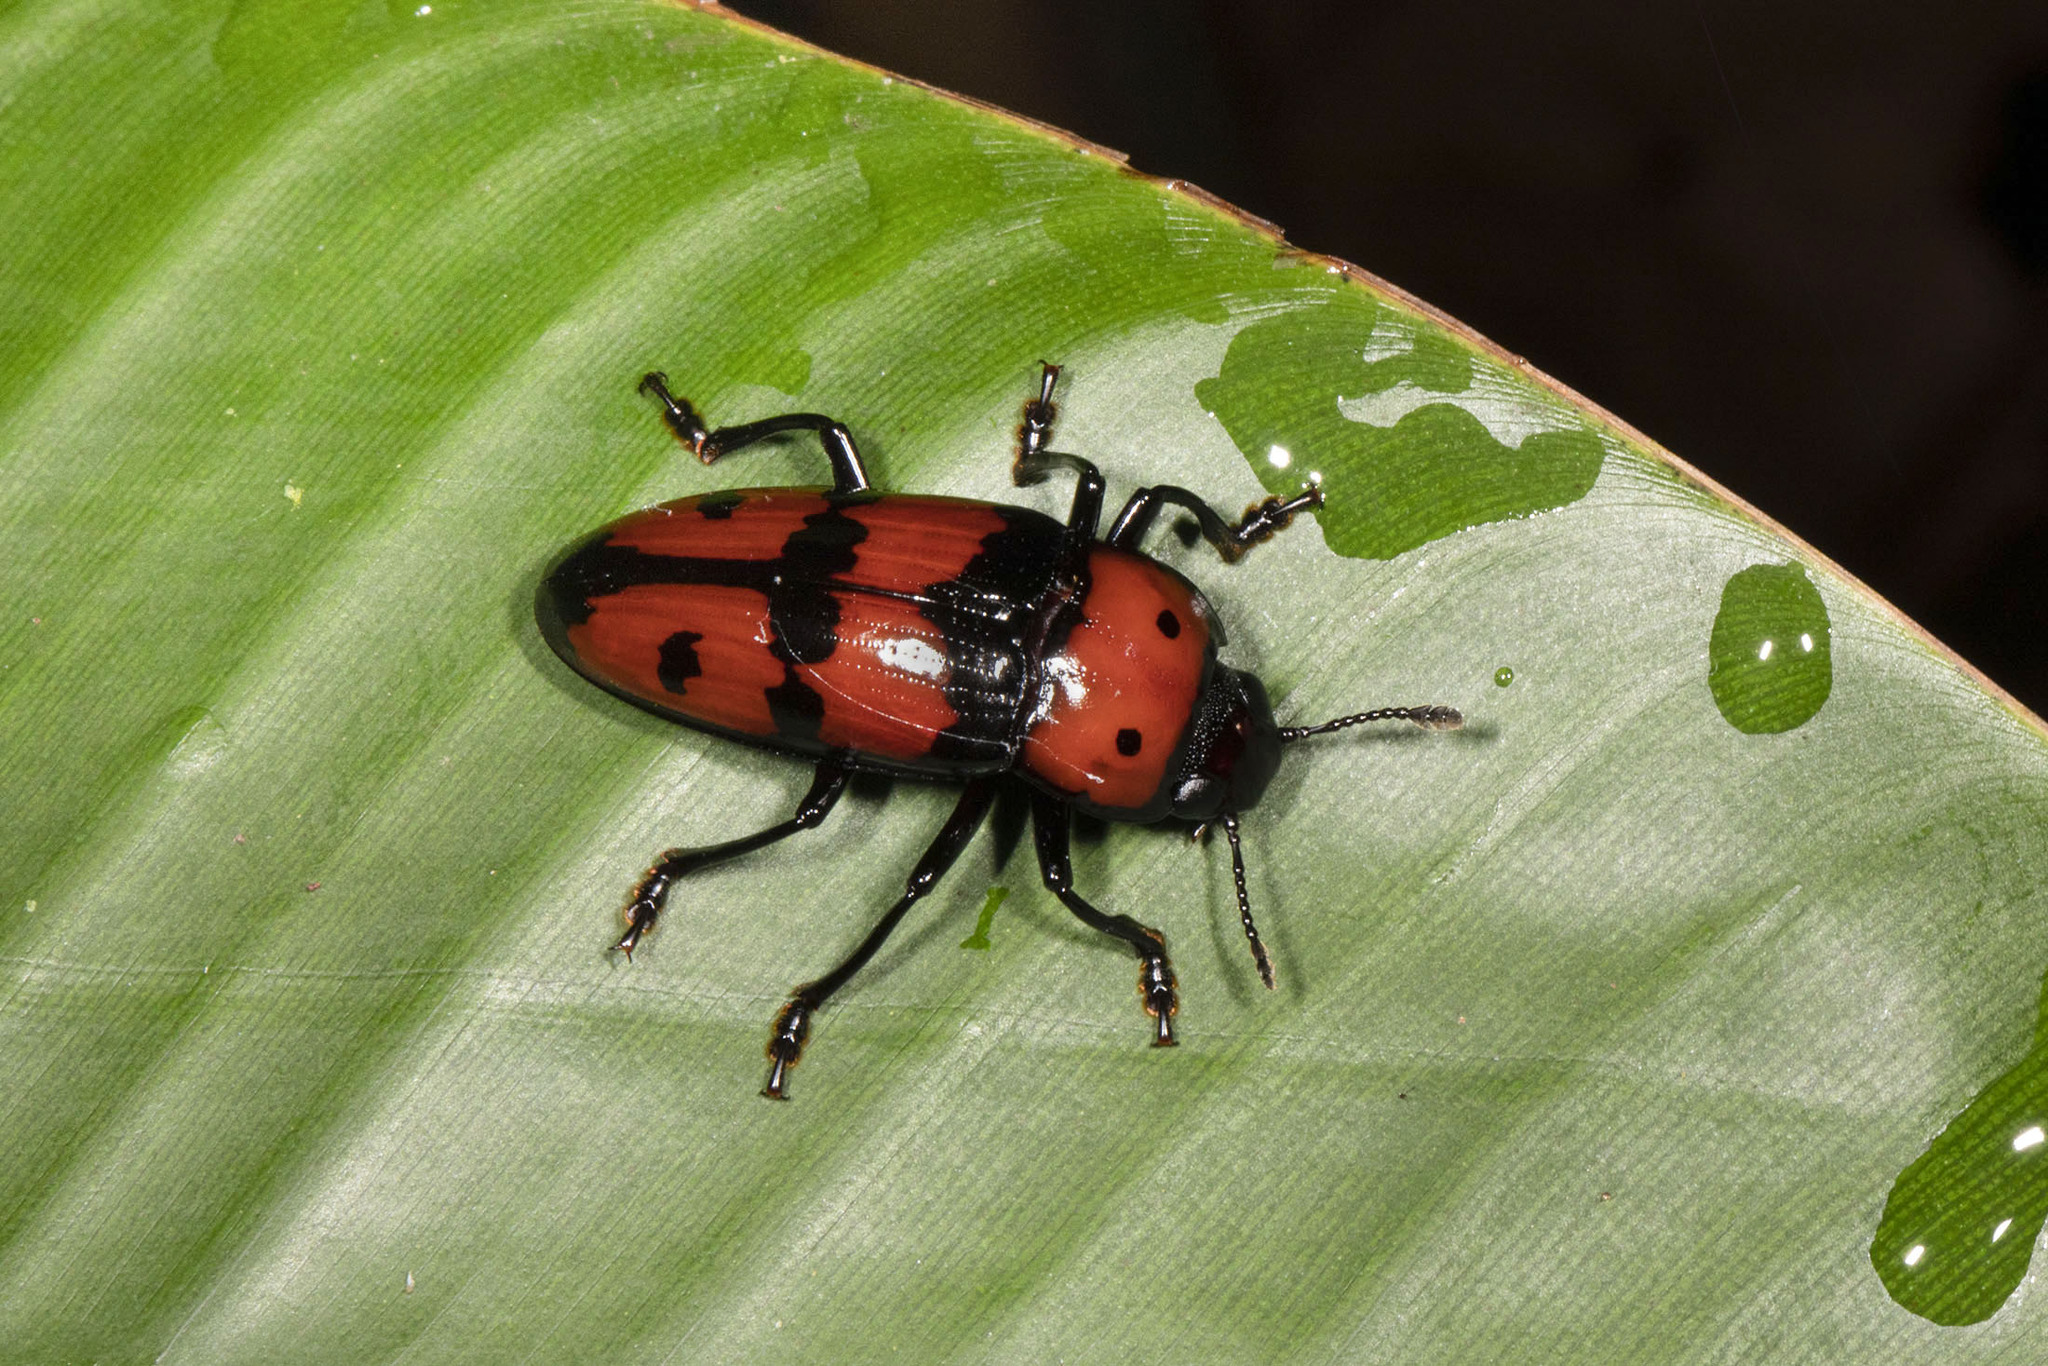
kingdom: Animalia
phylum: Arthropoda
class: Insecta
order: Coleoptera
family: Erotylidae
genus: Pselaphacus
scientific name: Pselaphacus giganteus
